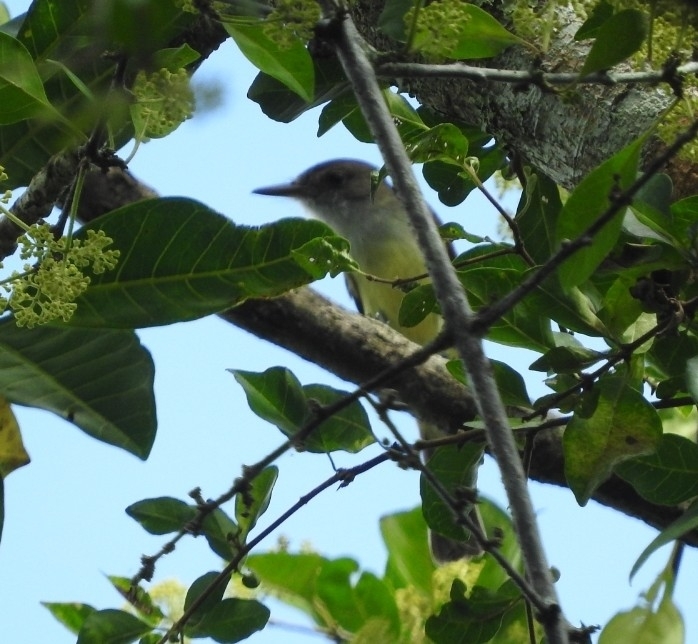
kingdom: Animalia
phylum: Chordata
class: Aves
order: Passeriformes
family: Tyrannidae
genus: Myiarchus
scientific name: Myiarchus tuberculifer
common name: Dusky-capped flycatcher
